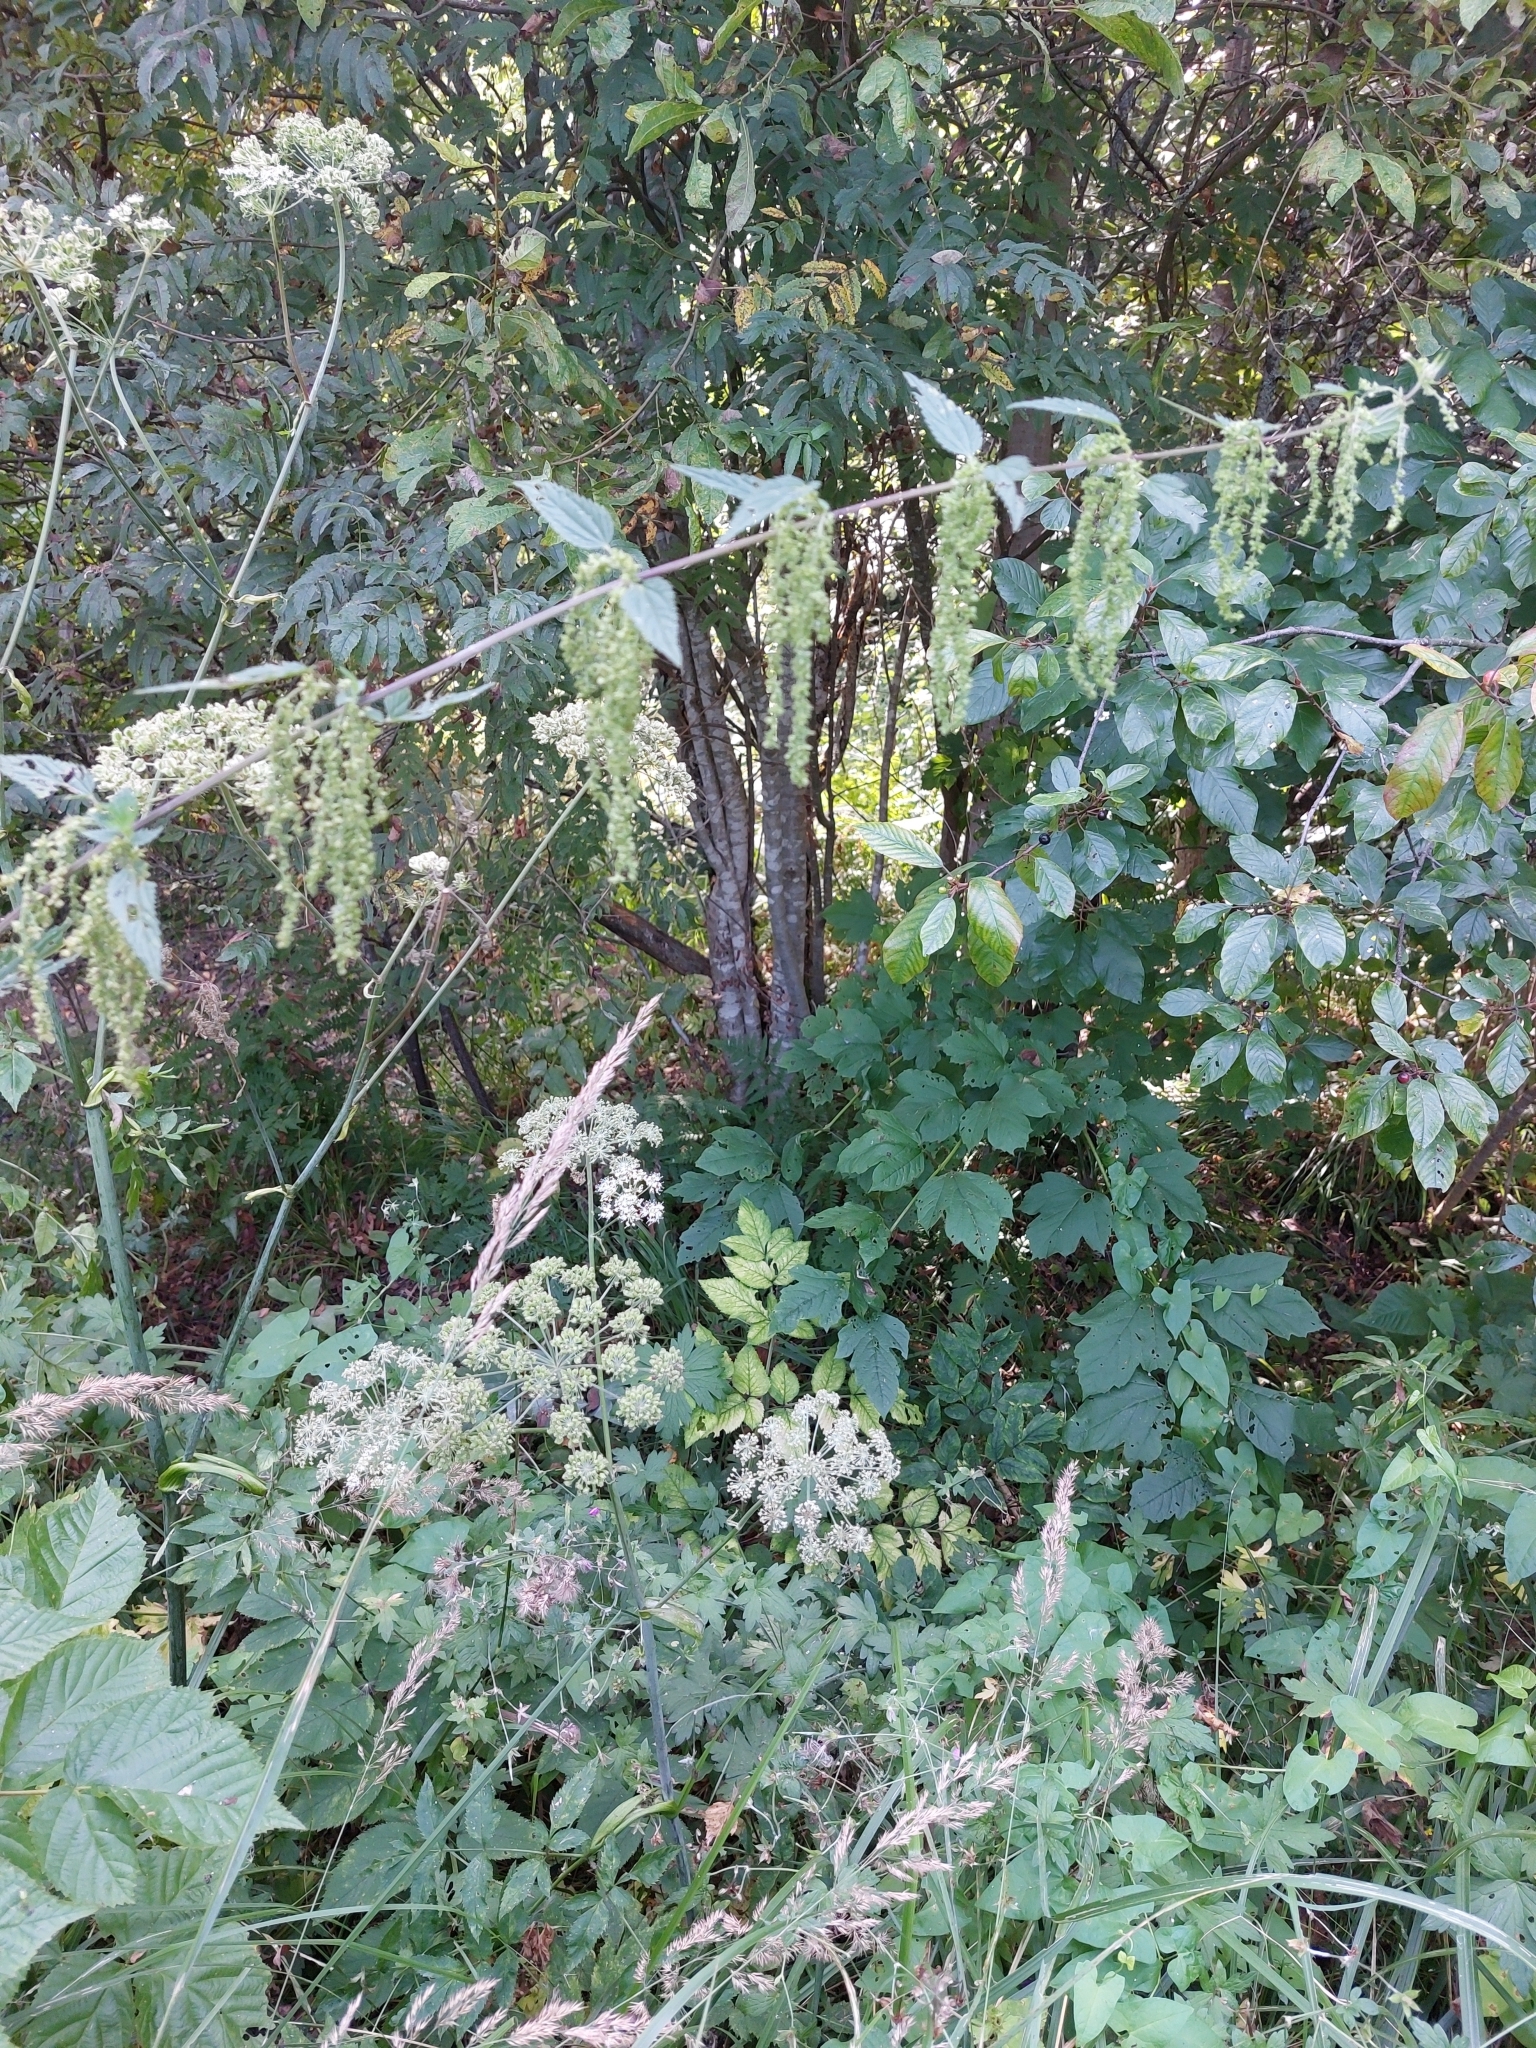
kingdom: Plantae
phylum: Tracheophyta
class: Magnoliopsida
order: Rosales
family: Urticaceae
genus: Urtica
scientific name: Urtica dioica
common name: Common nettle
